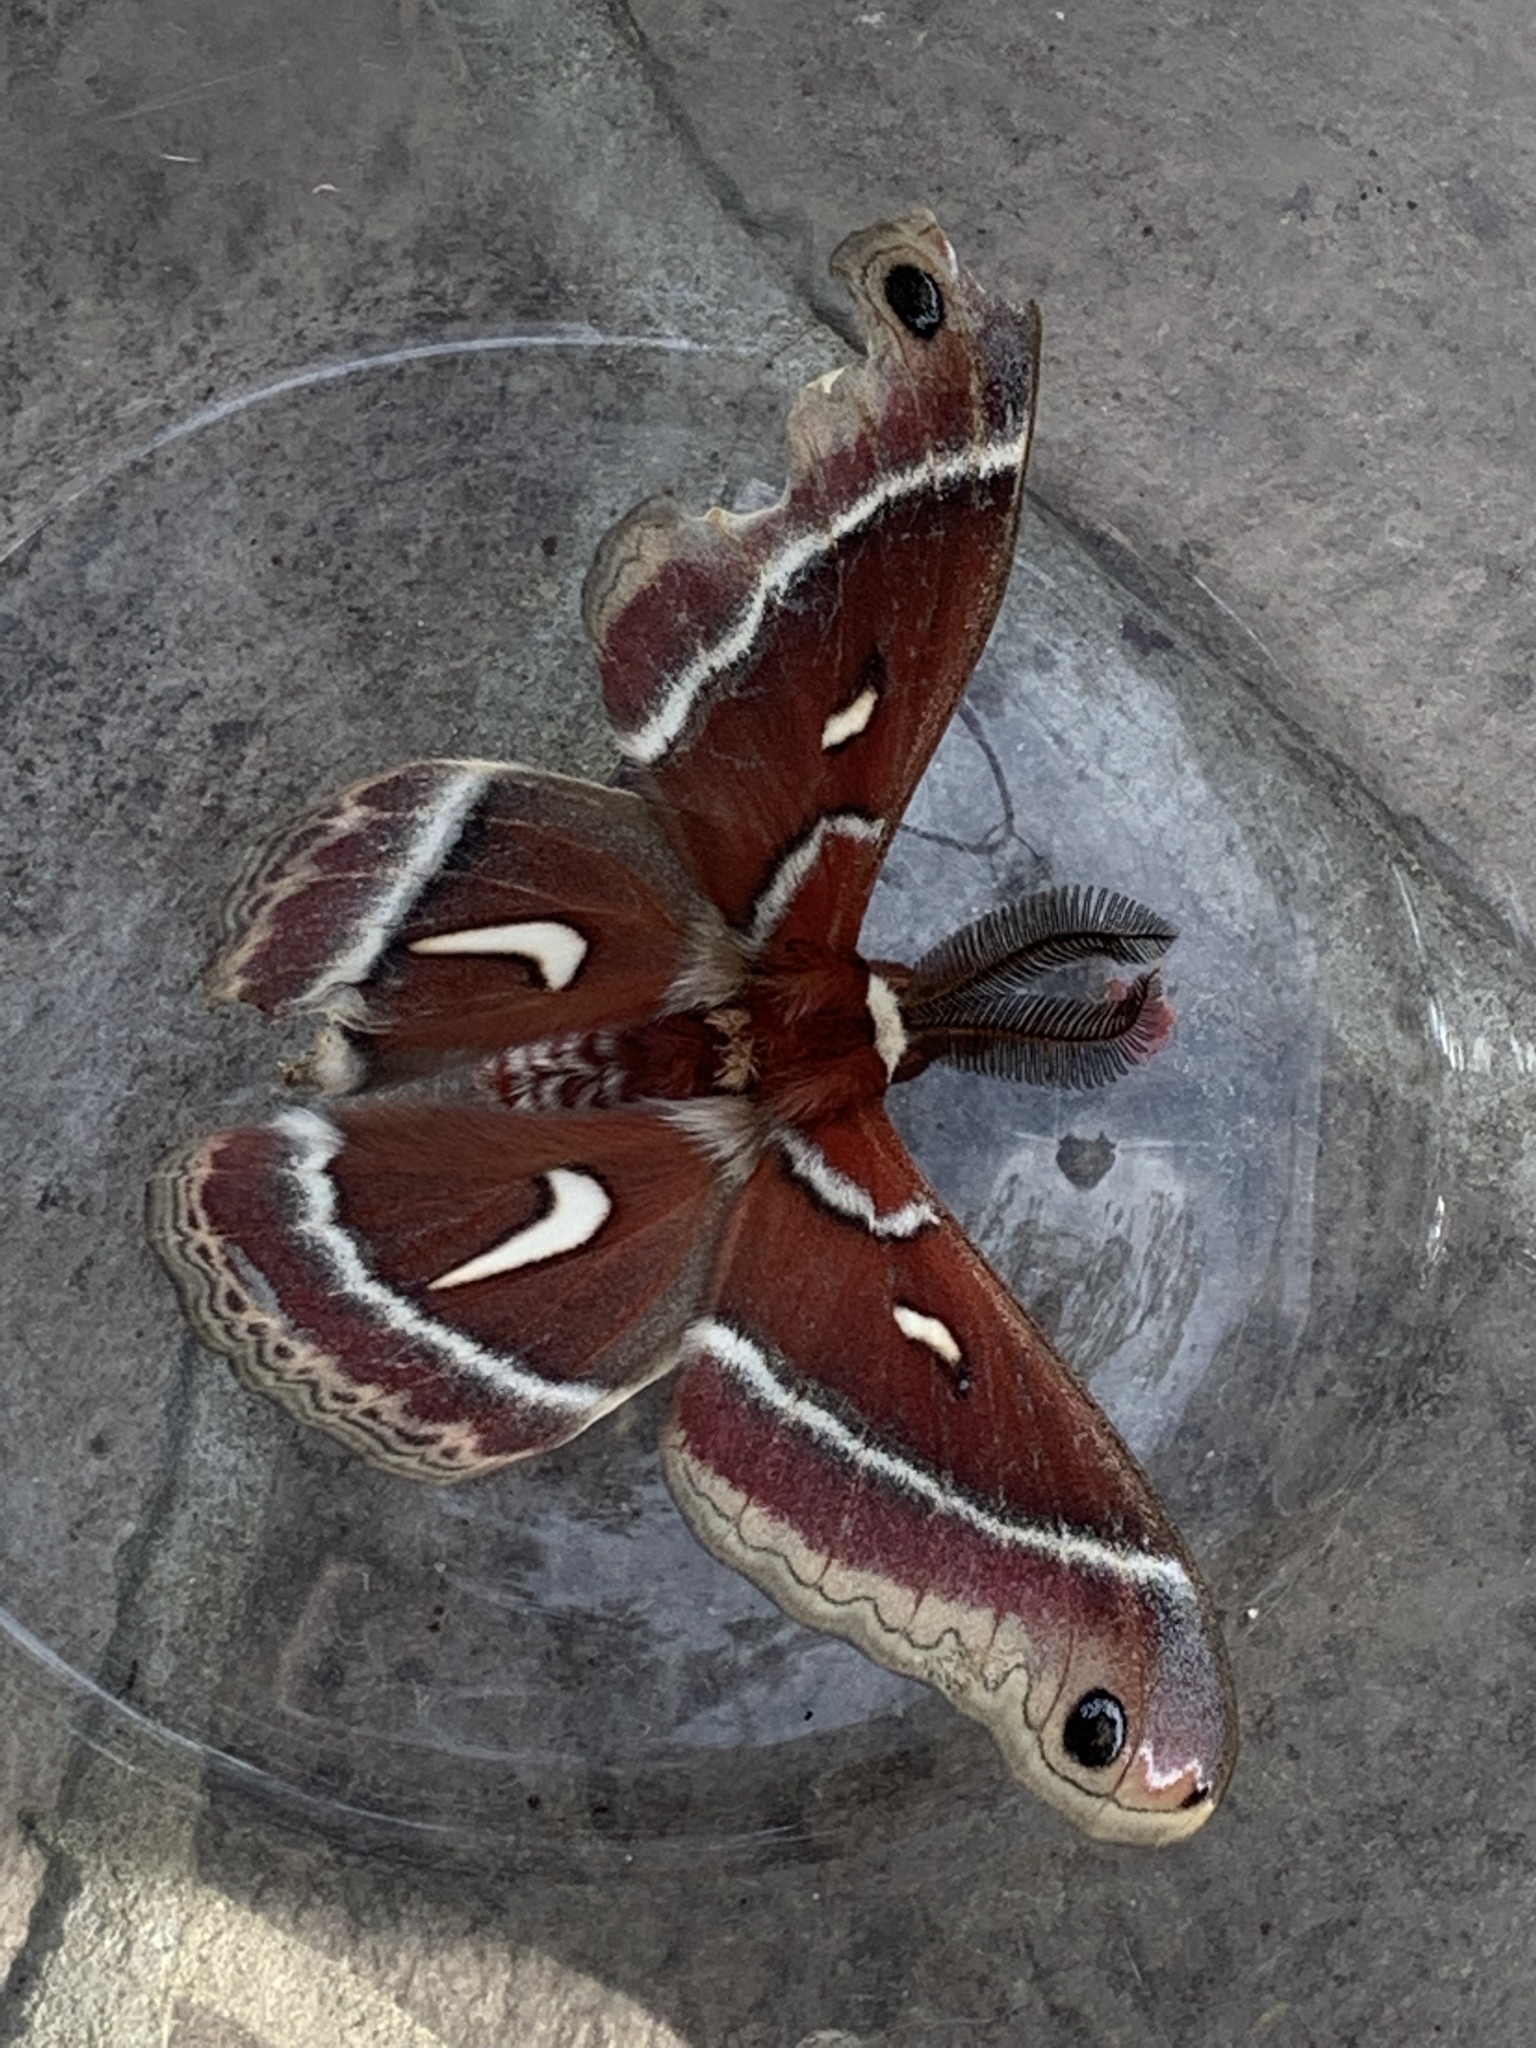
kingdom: Animalia
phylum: Arthropoda
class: Insecta
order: Lepidoptera
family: Saturniidae
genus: Hyalophora
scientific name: Hyalophora euryalus
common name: Ceanothus silkmoth
